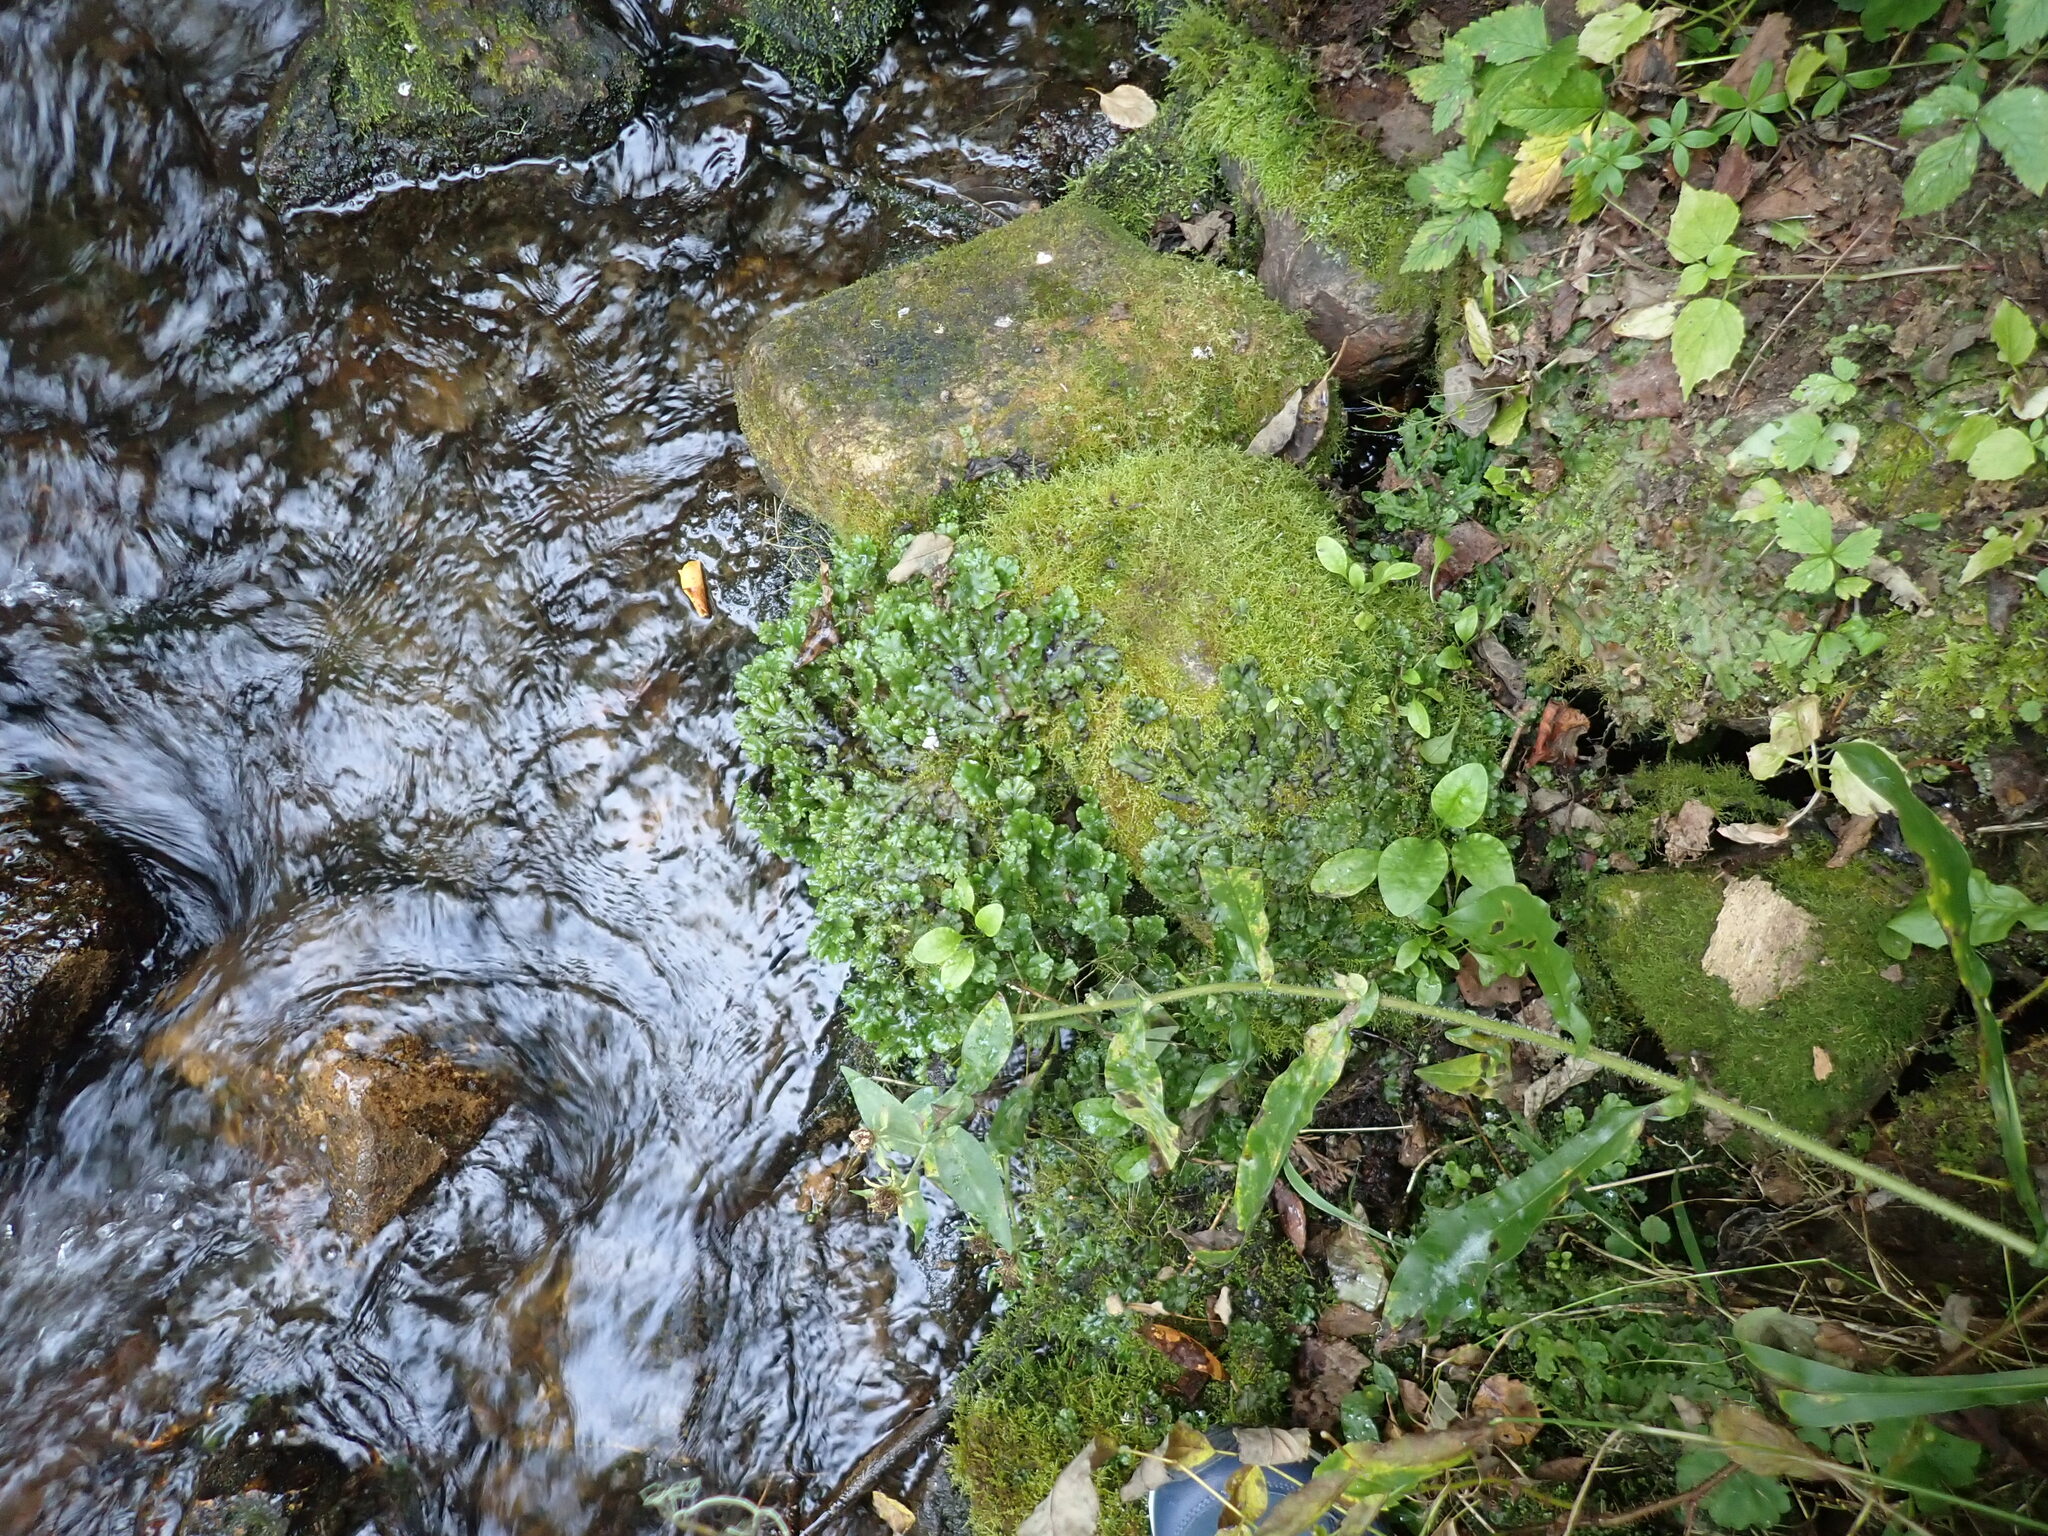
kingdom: Plantae
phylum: Marchantiophyta
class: Marchantiopsida
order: Marchantiales
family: Marchantiaceae
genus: Marchantia
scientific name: Marchantia polymorpha
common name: Common liverwort
